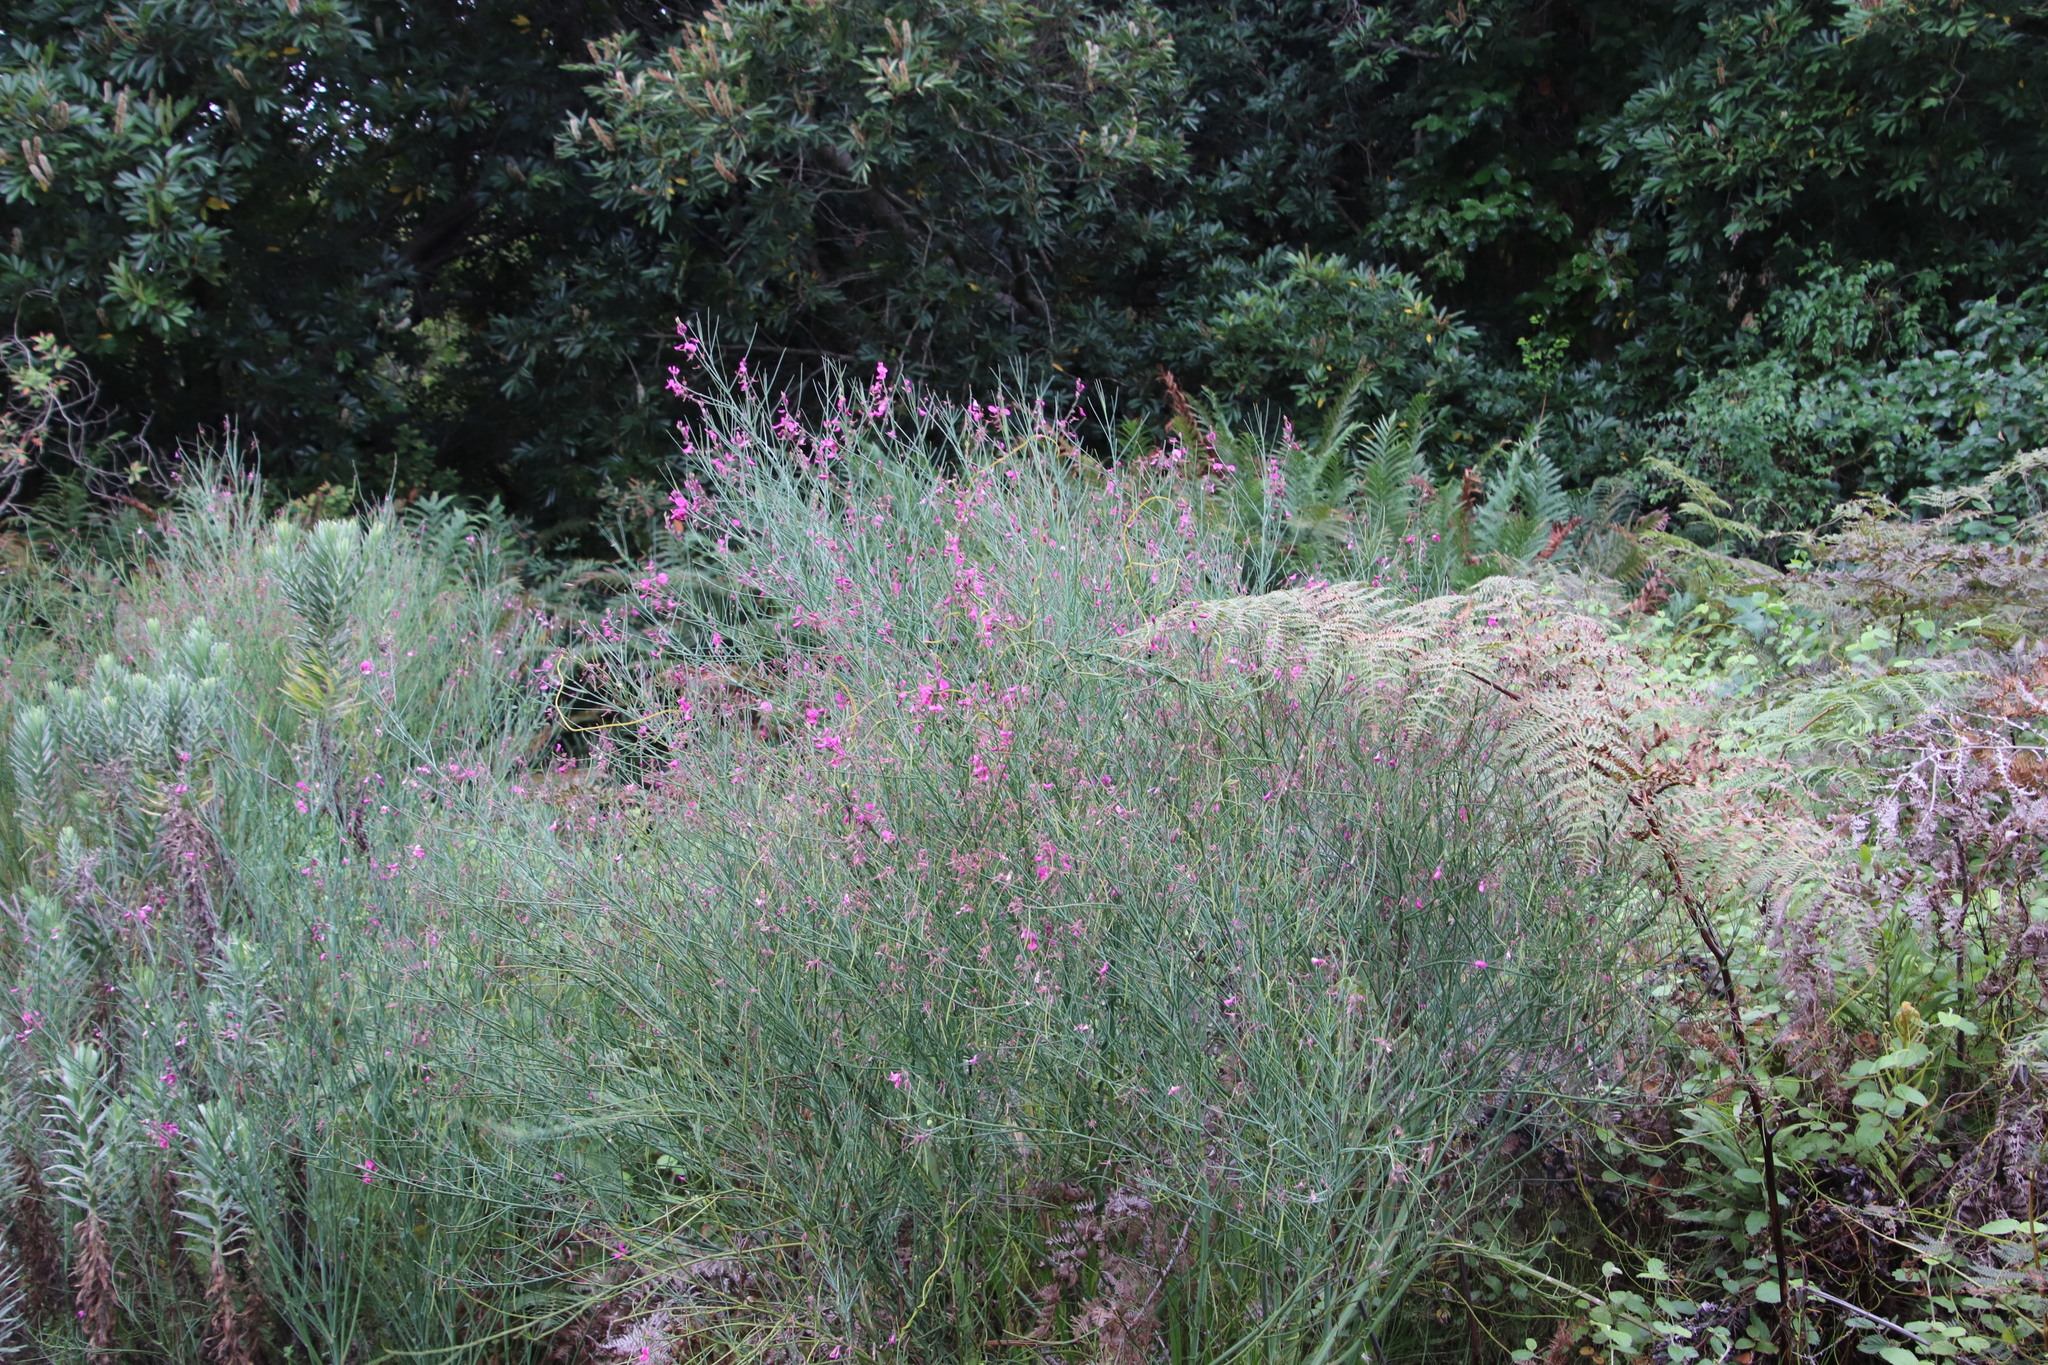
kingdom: Plantae
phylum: Tracheophyta
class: Magnoliopsida
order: Fabales
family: Fabaceae
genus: Indigofera
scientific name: Indigofera filifolia
